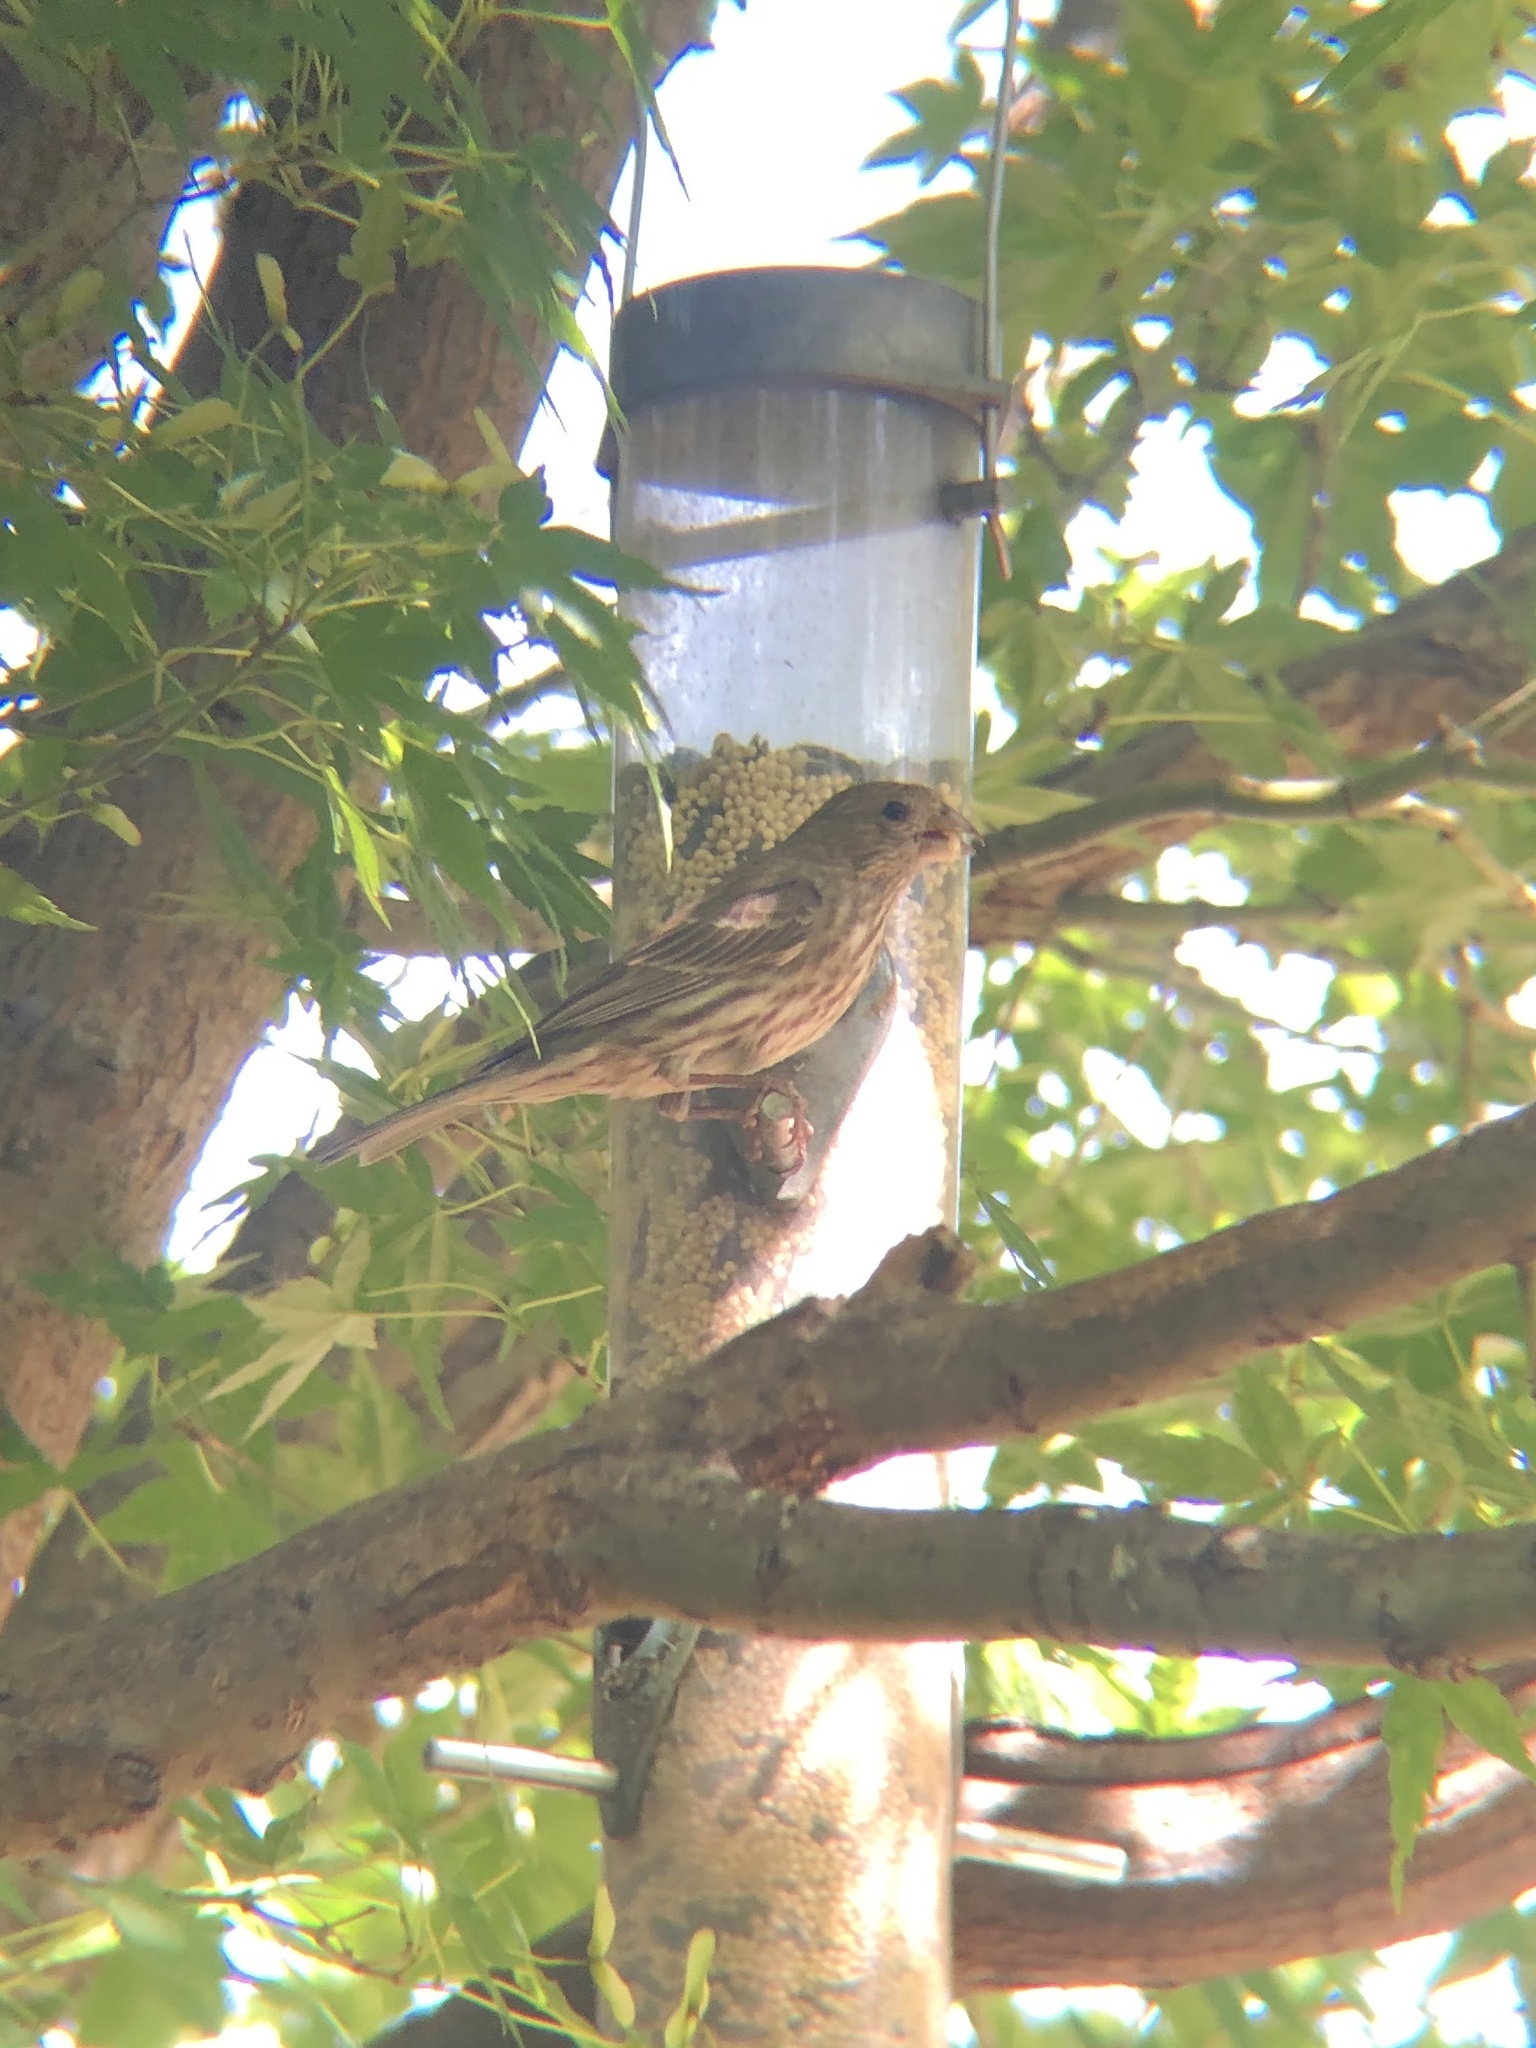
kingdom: Animalia
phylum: Chordata
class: Aves
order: Passeriformes
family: Fringillidae
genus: Haemorhous
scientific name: Haemorhous mexicanus
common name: House finch
